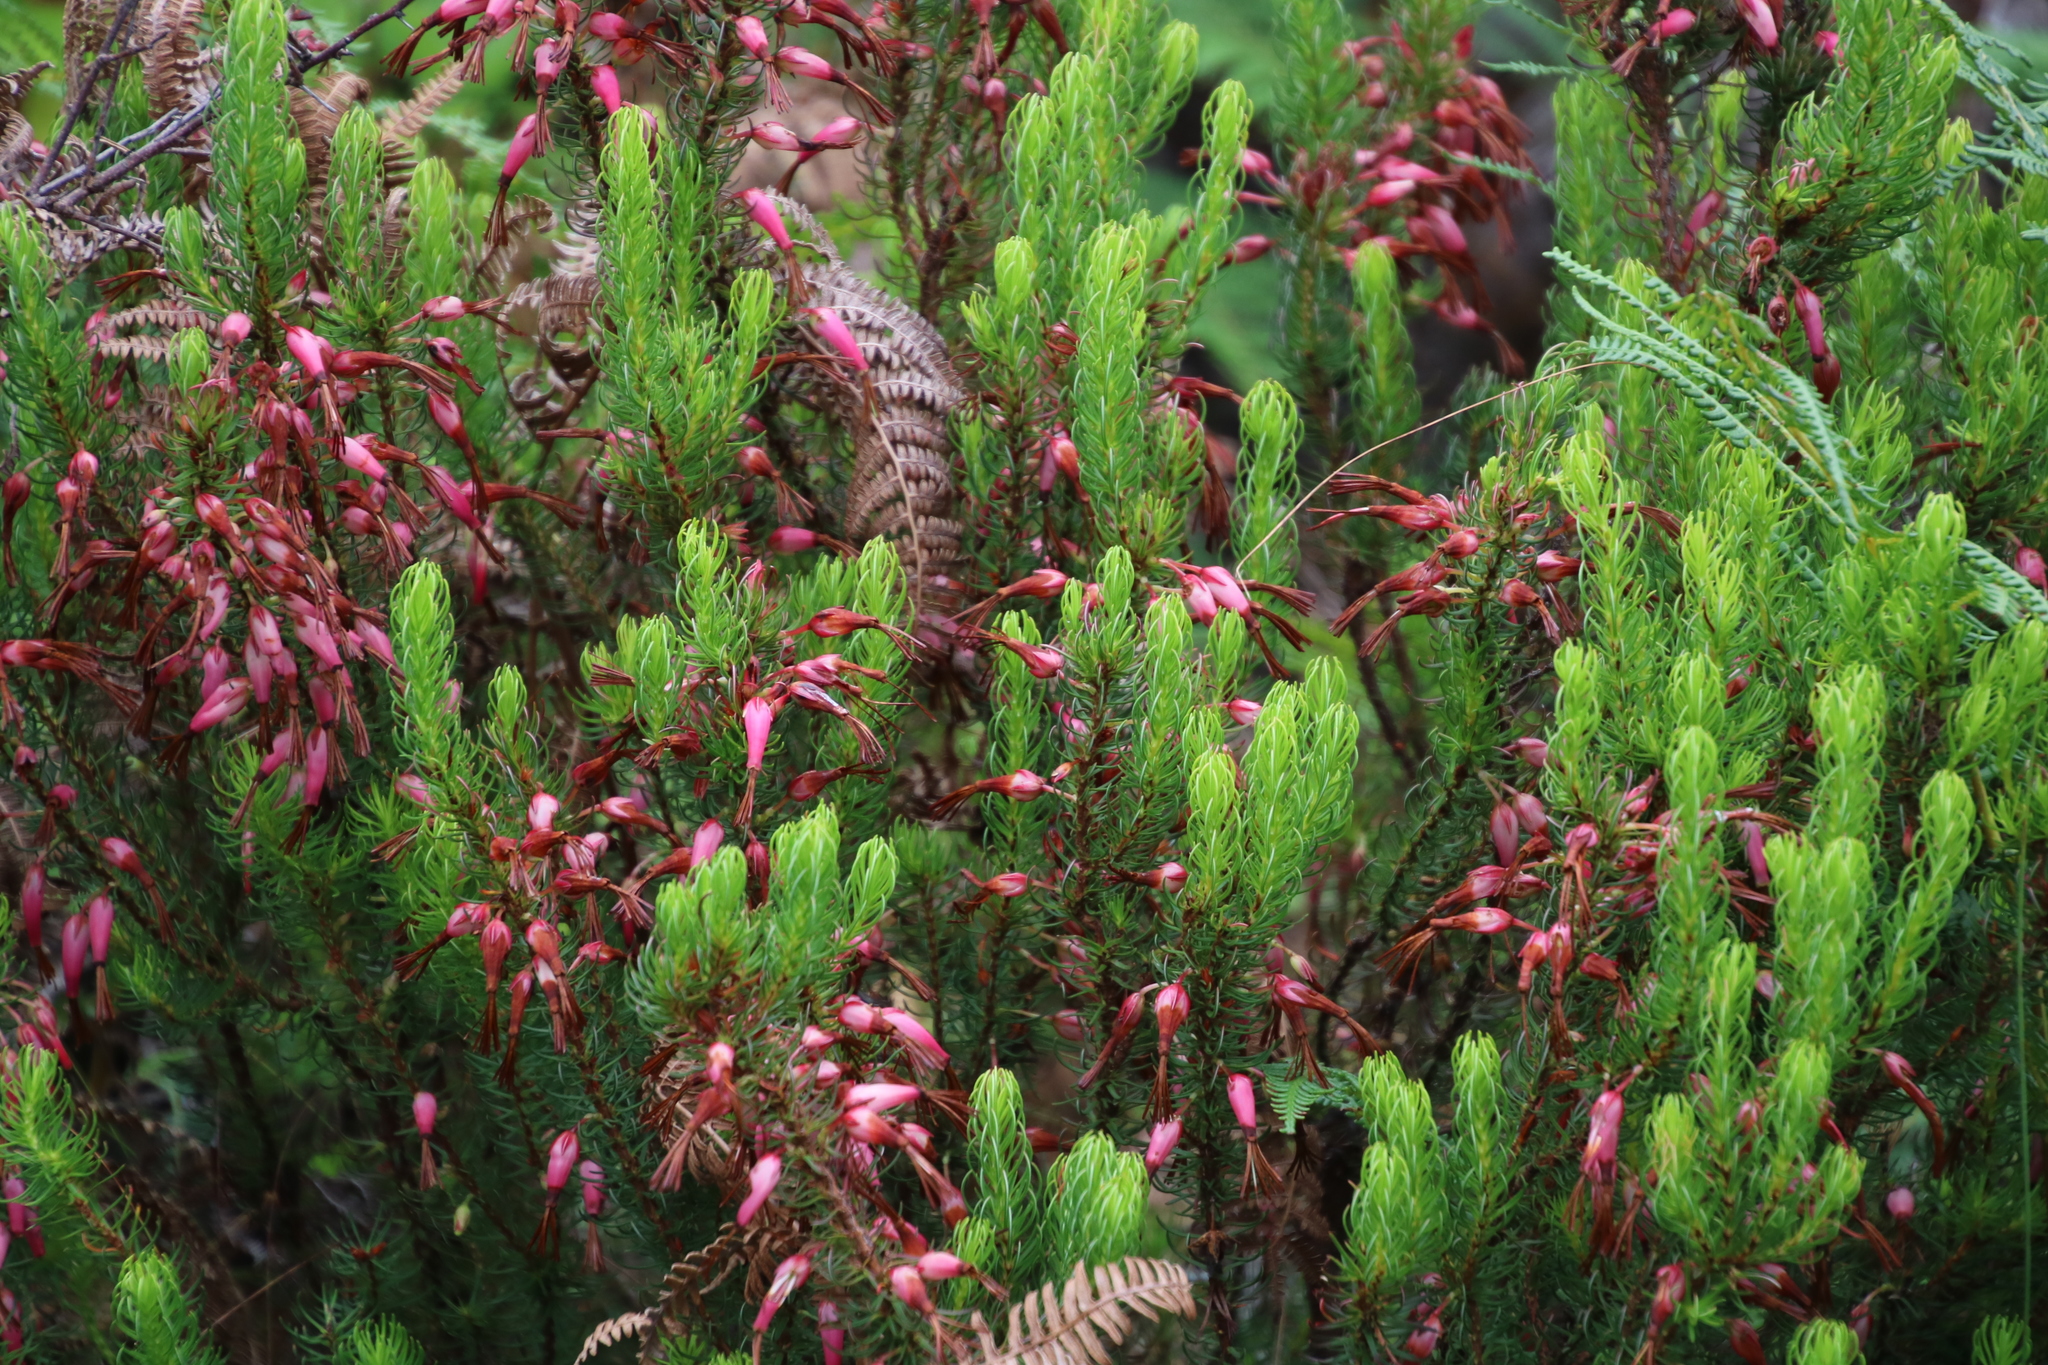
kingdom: Plantae
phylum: Tracheophyta
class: Magnoliopsida
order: Ericales
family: Ericaceae
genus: Erica
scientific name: Erica plukenetii
